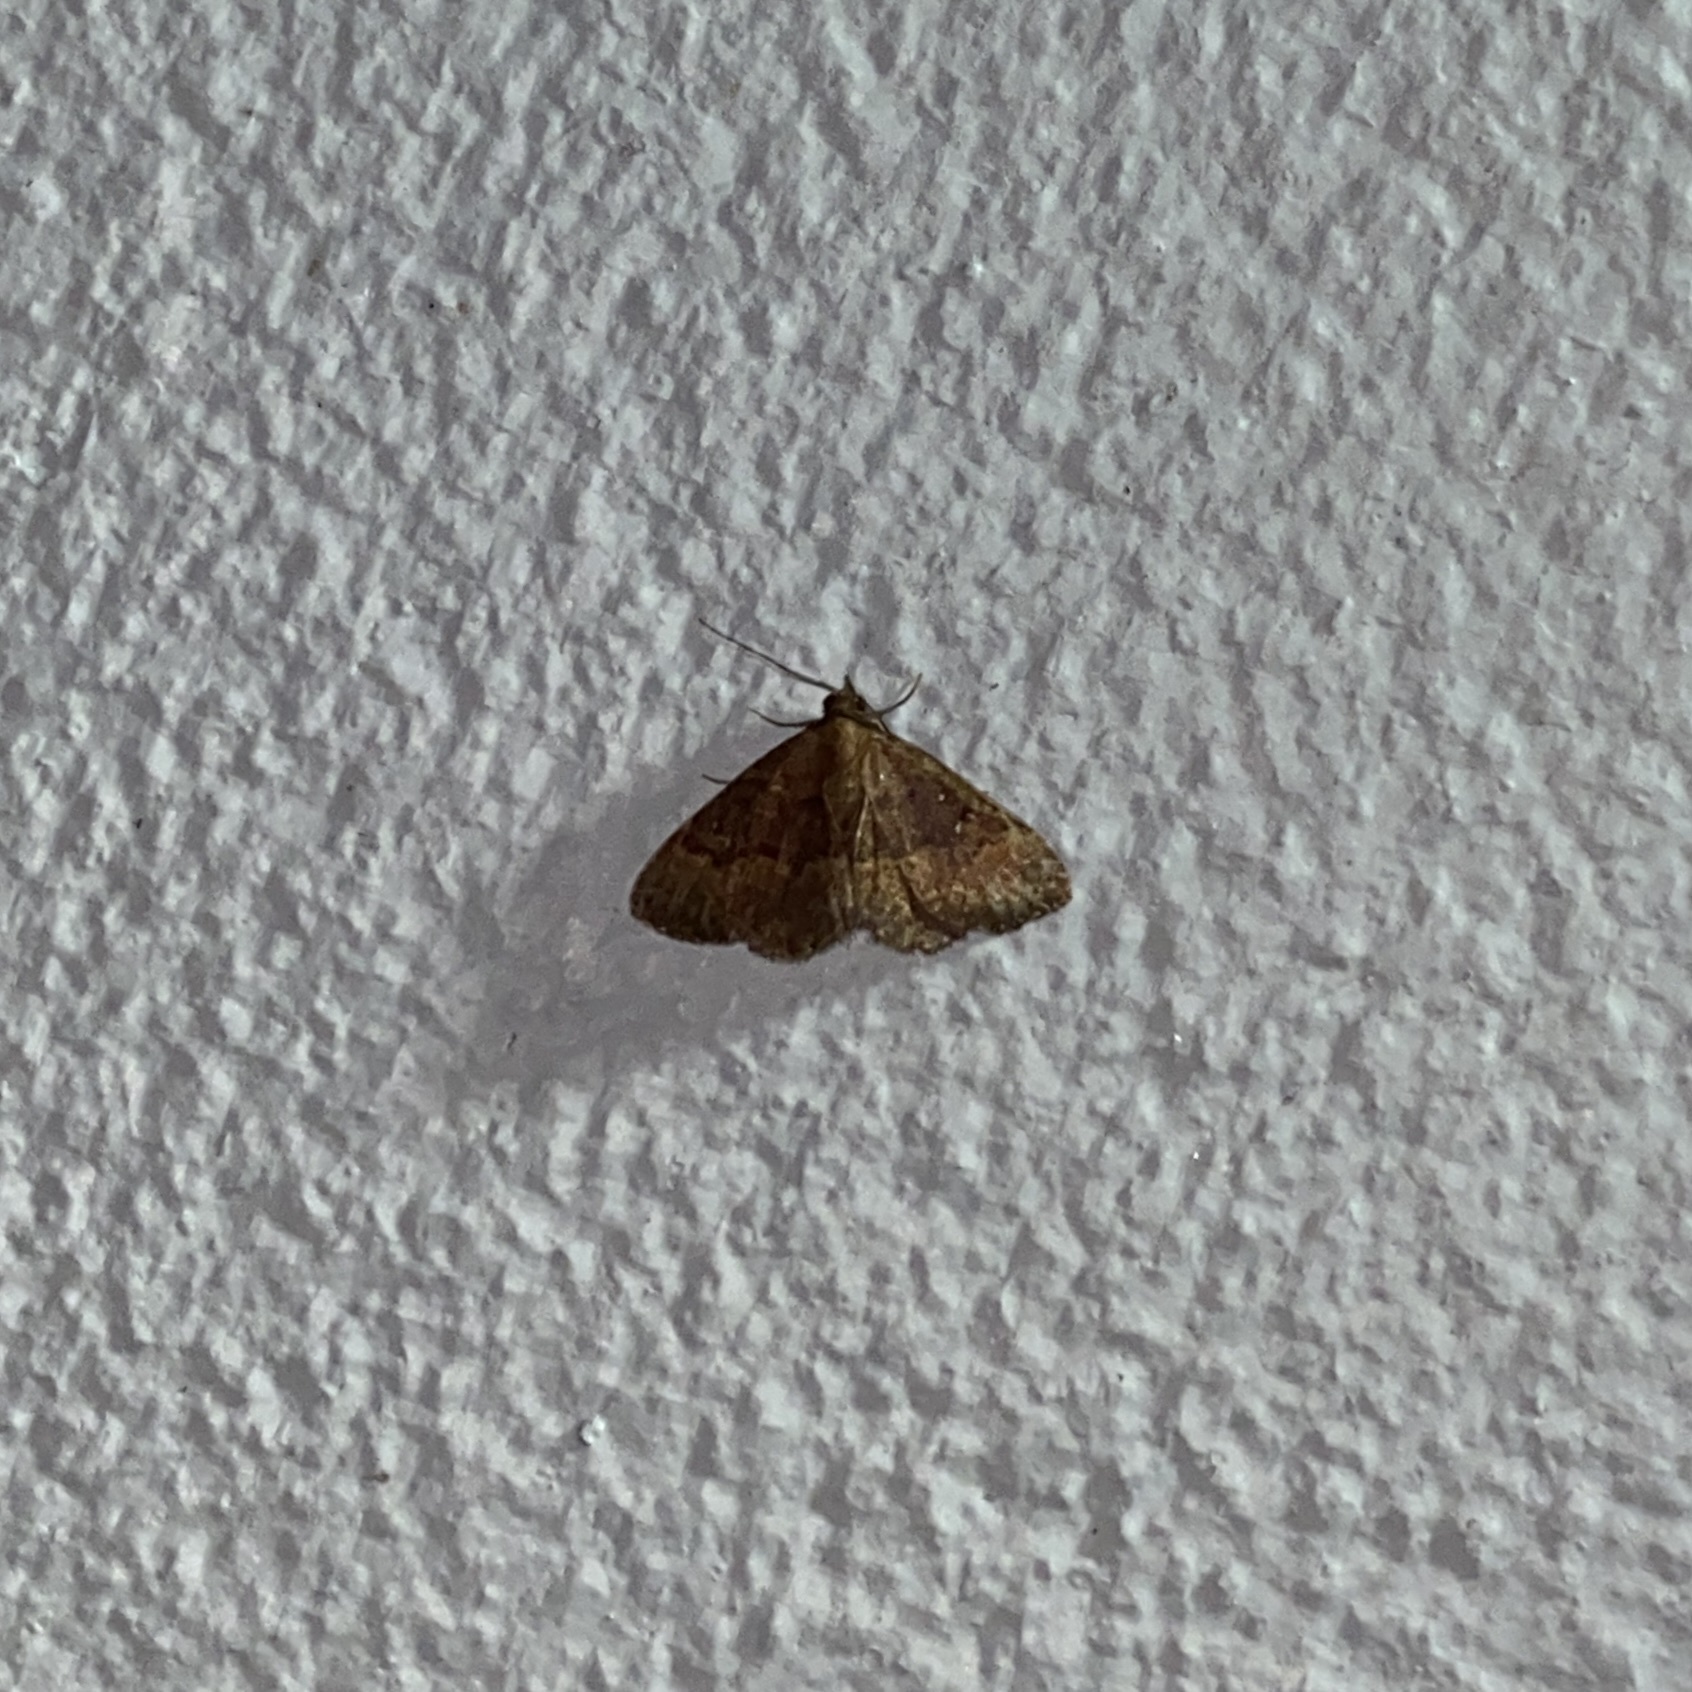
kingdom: Animalia
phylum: Arthropoda
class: Insecta
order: Lepidoptera
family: Erebidae
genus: Ostha
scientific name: Ostha coryphata
